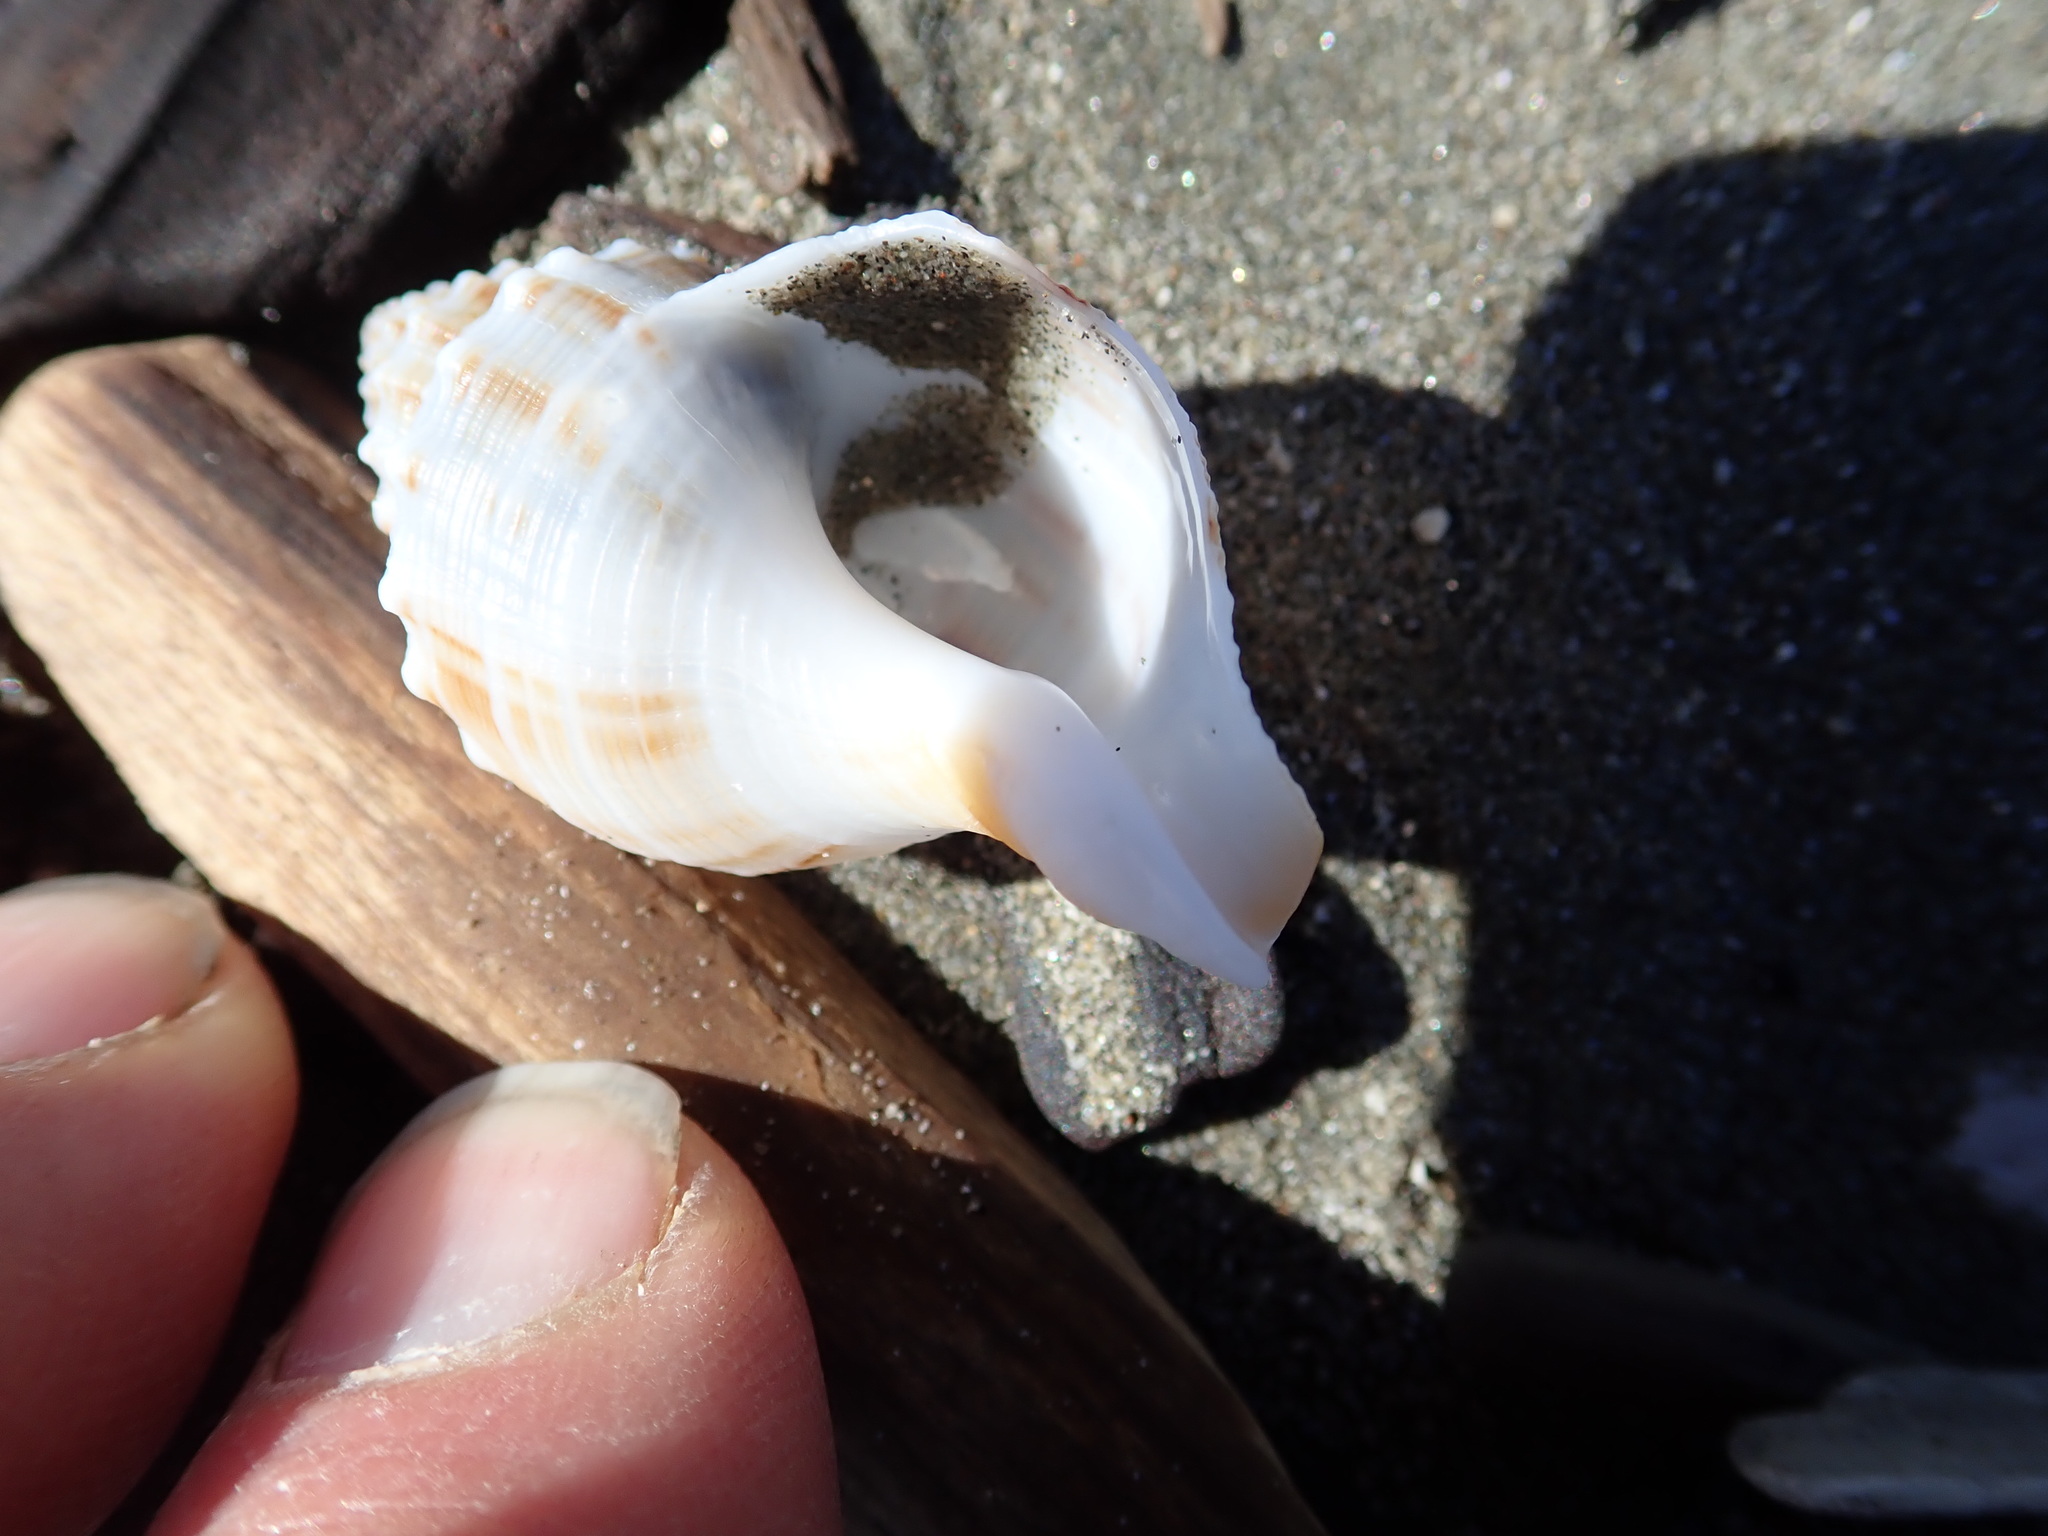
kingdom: Animalia
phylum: Mollusca
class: Gastropoda
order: Neogastropoda
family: Prosiphonidae
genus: Austrofusus
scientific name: Austrofusus glans
